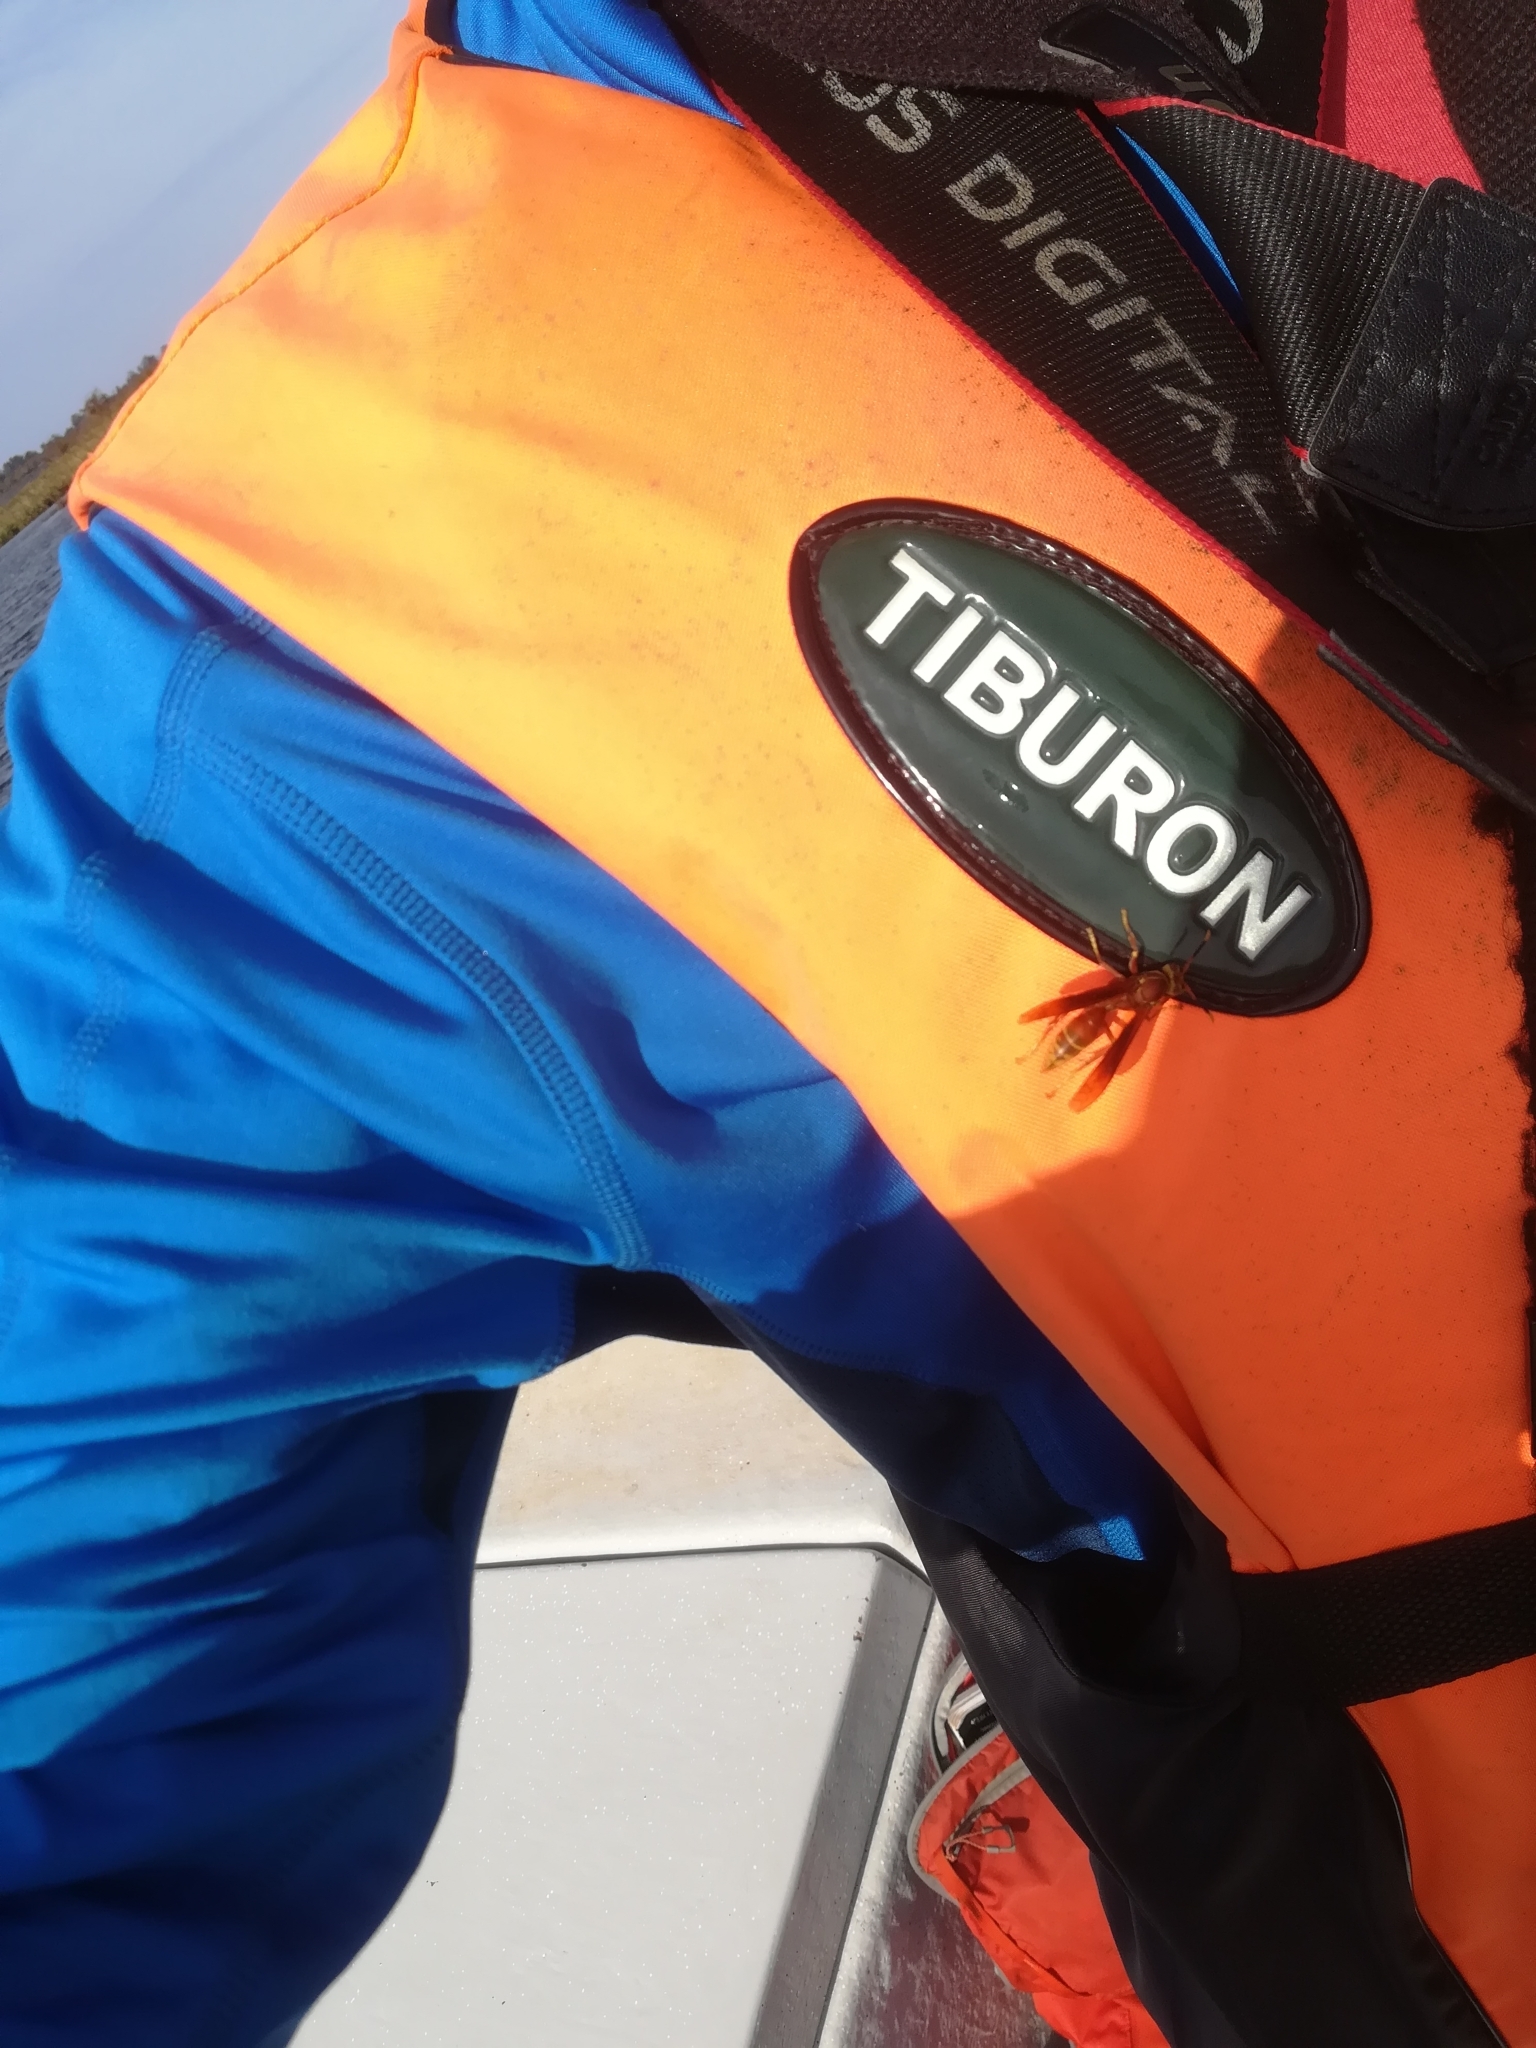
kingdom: Animalia
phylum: Arthropoda
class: Insecta
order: Hymenoptera
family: Eumenidae
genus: Polistes
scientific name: Polistes cavapyta
